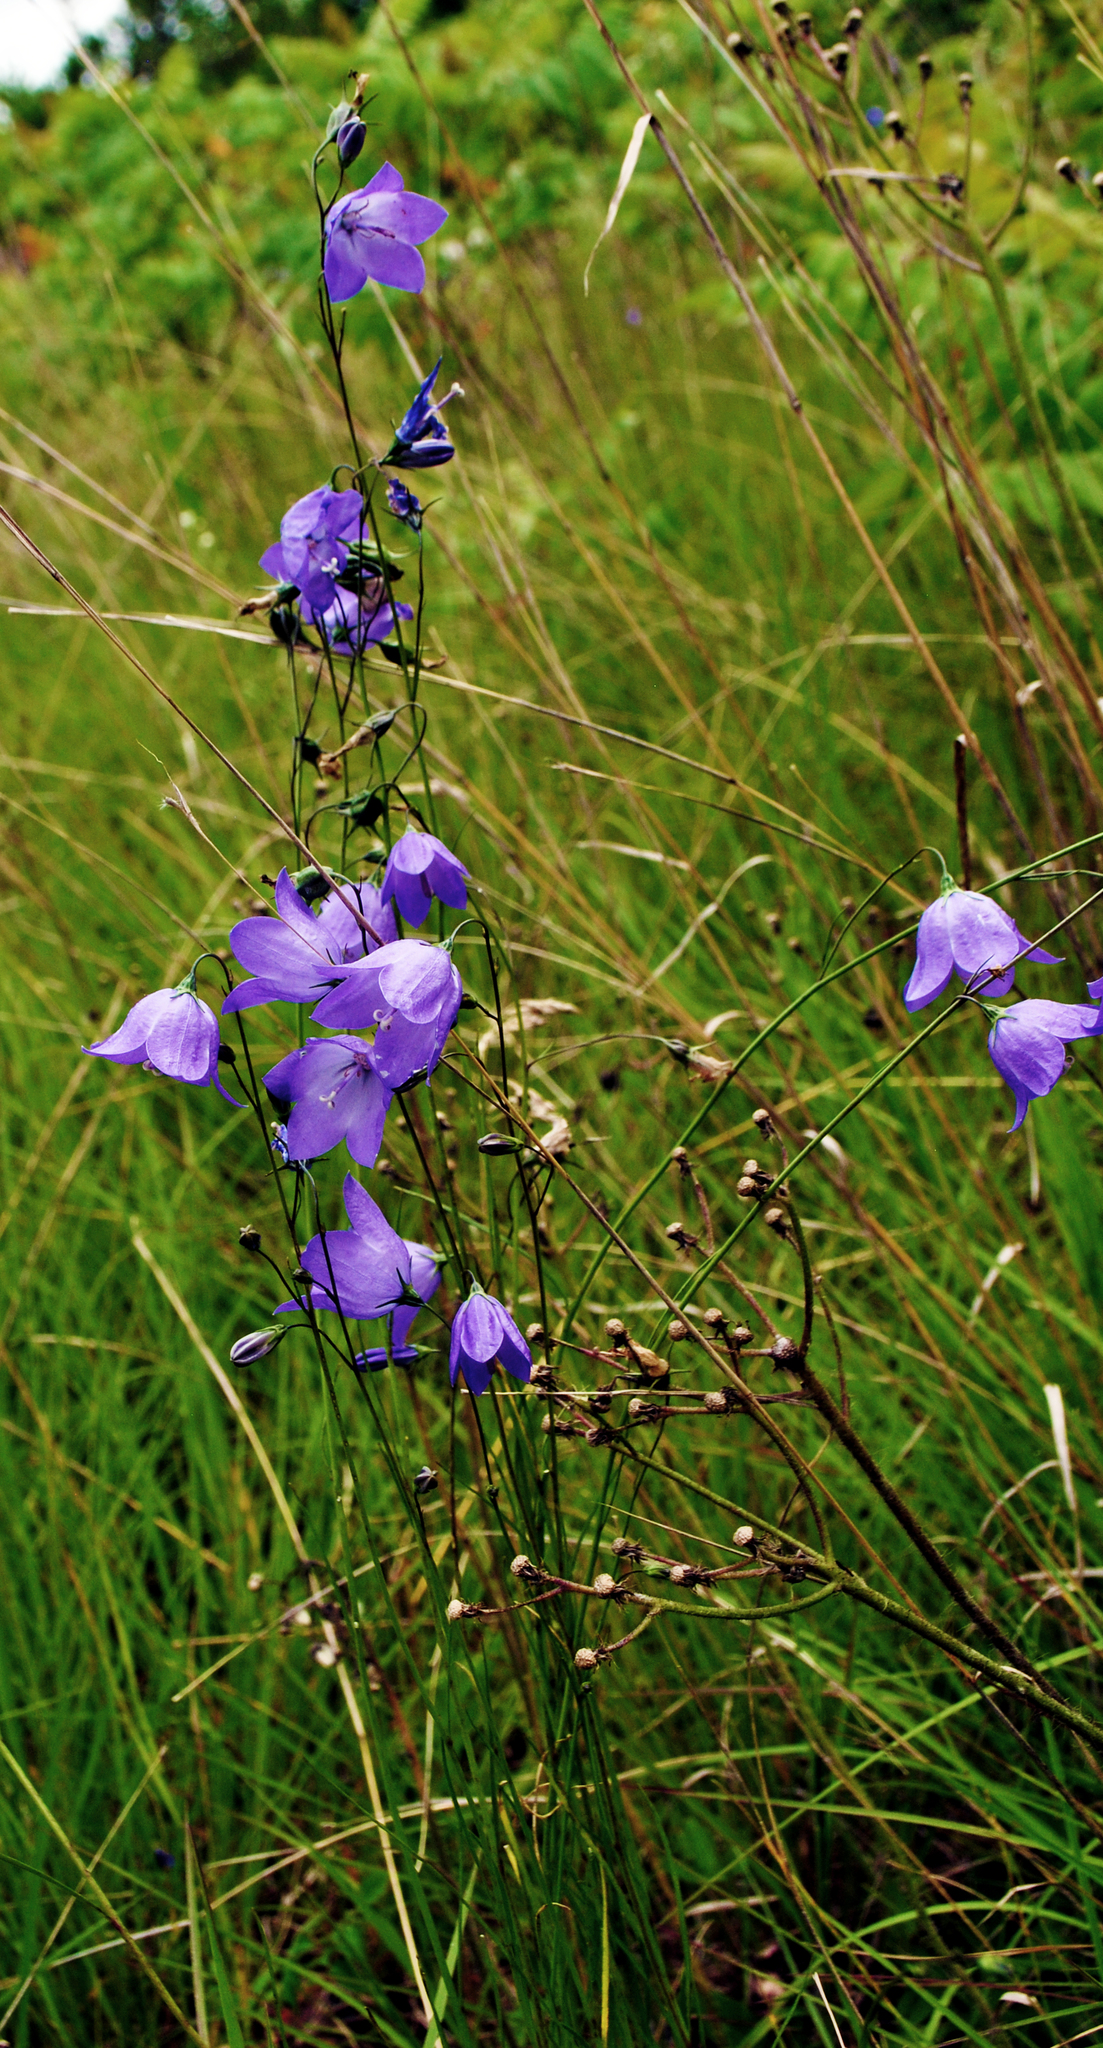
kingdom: Plantae
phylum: Tracheophyta
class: Magnoliopsida
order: Asterales
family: Campanulaceae
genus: Campanula
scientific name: Campanula intercedens
